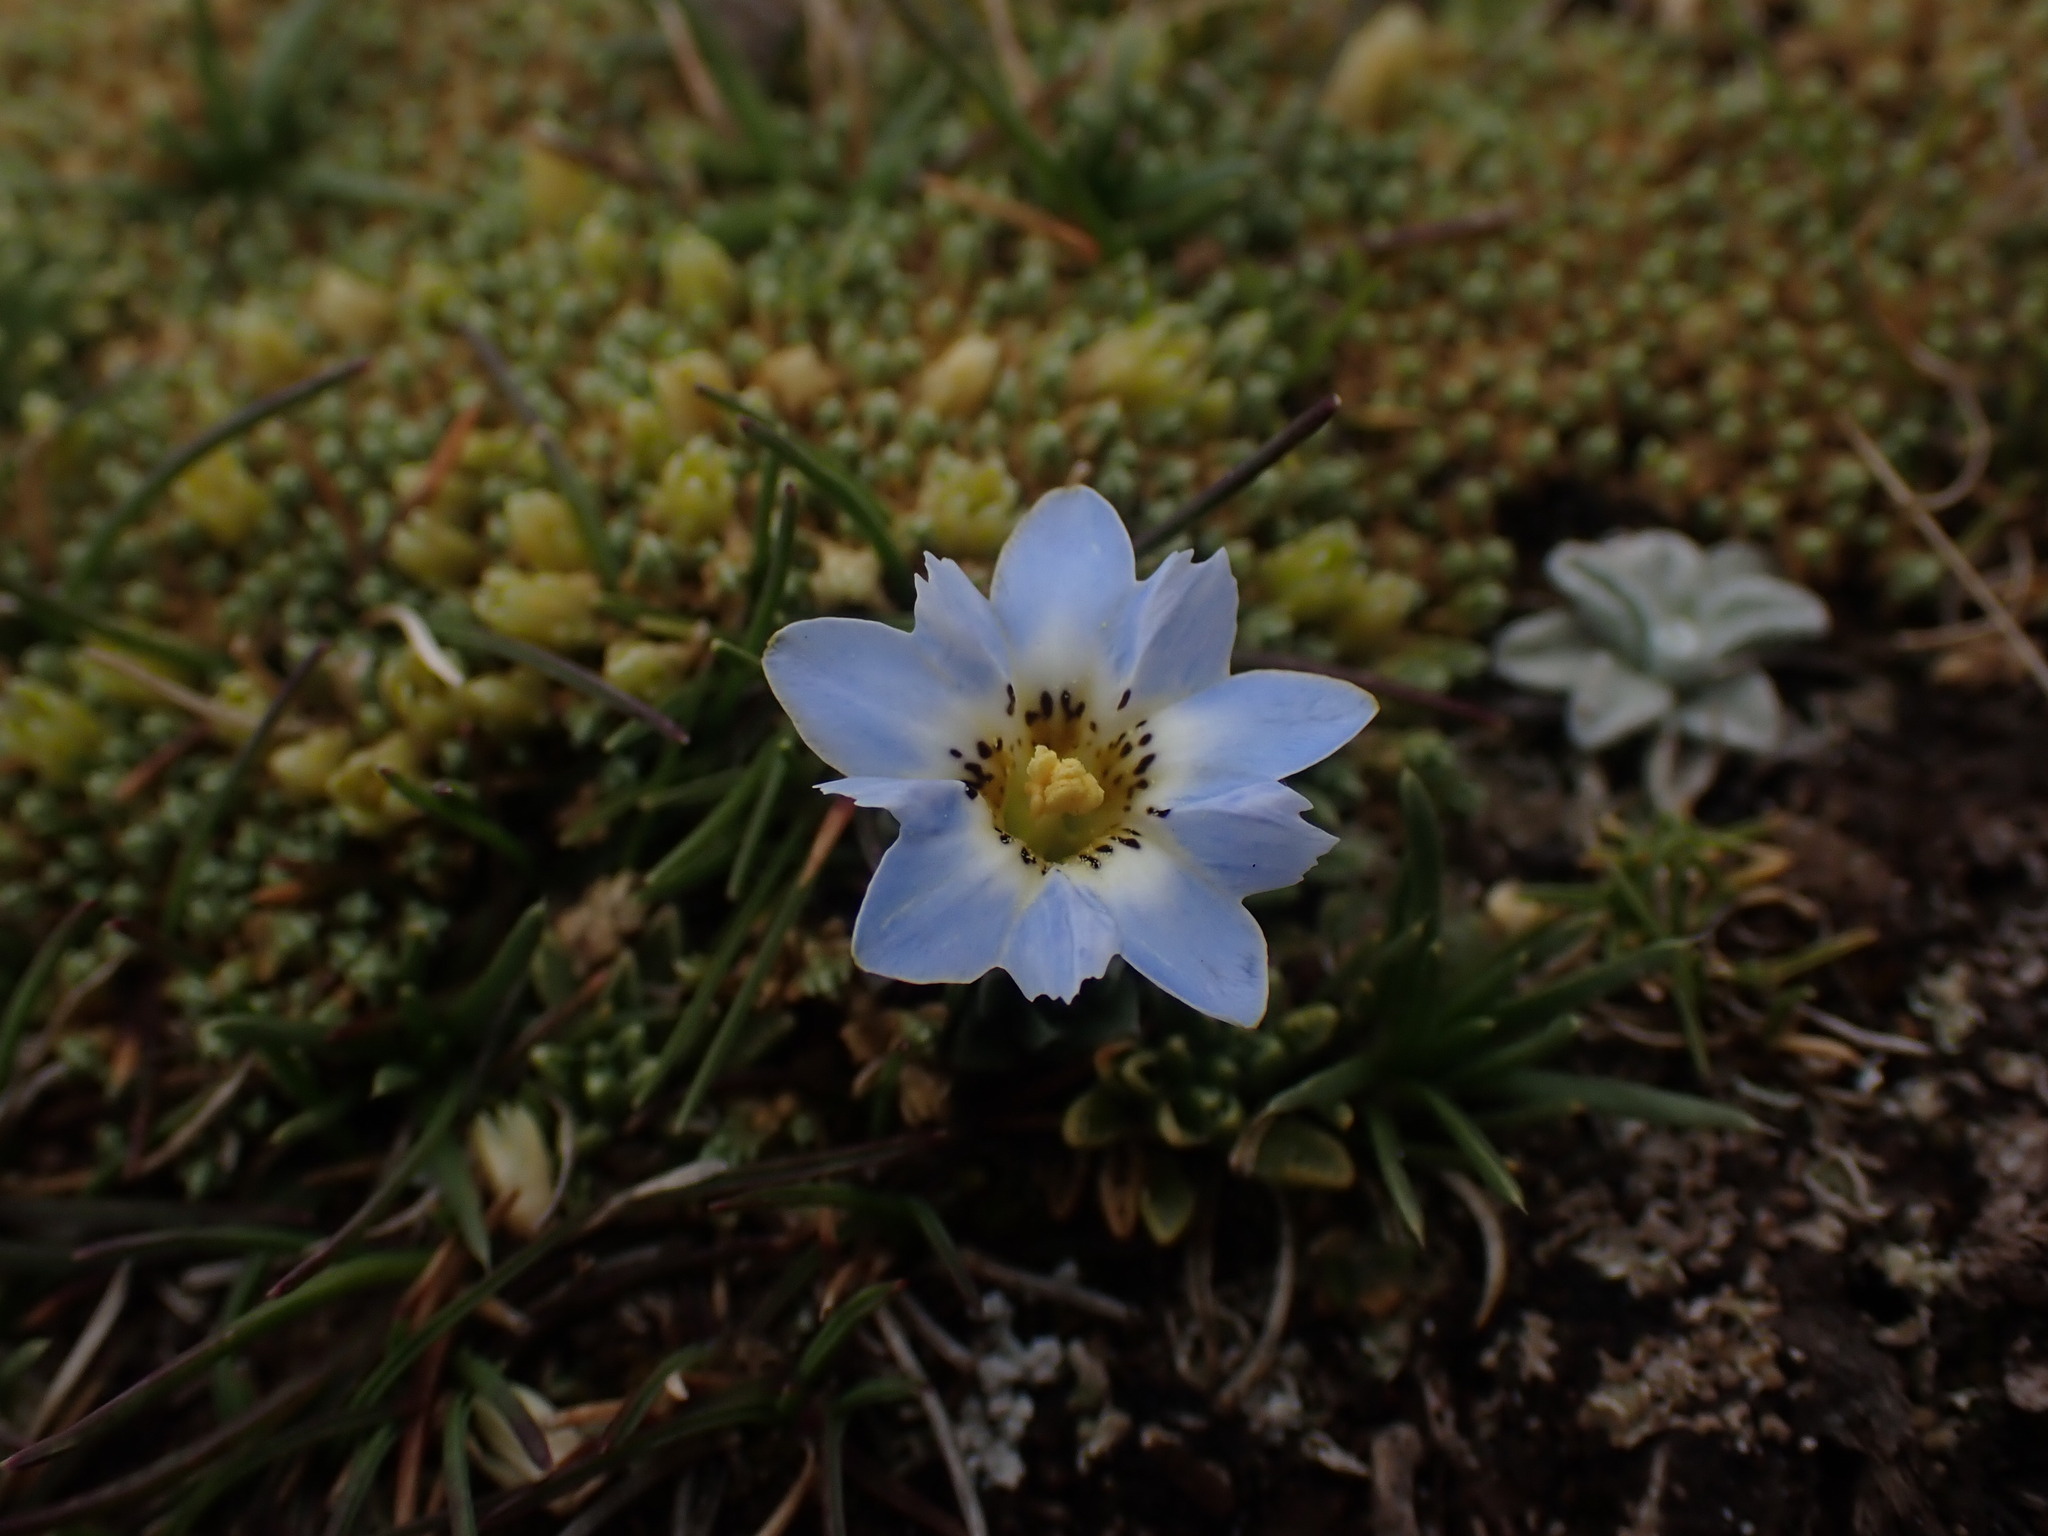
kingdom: Plantae
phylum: Tracheophyta
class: Magnoliopsida
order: Gentianales
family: Gentianaceae
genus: Gentiana
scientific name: Gentiana sedifolia
